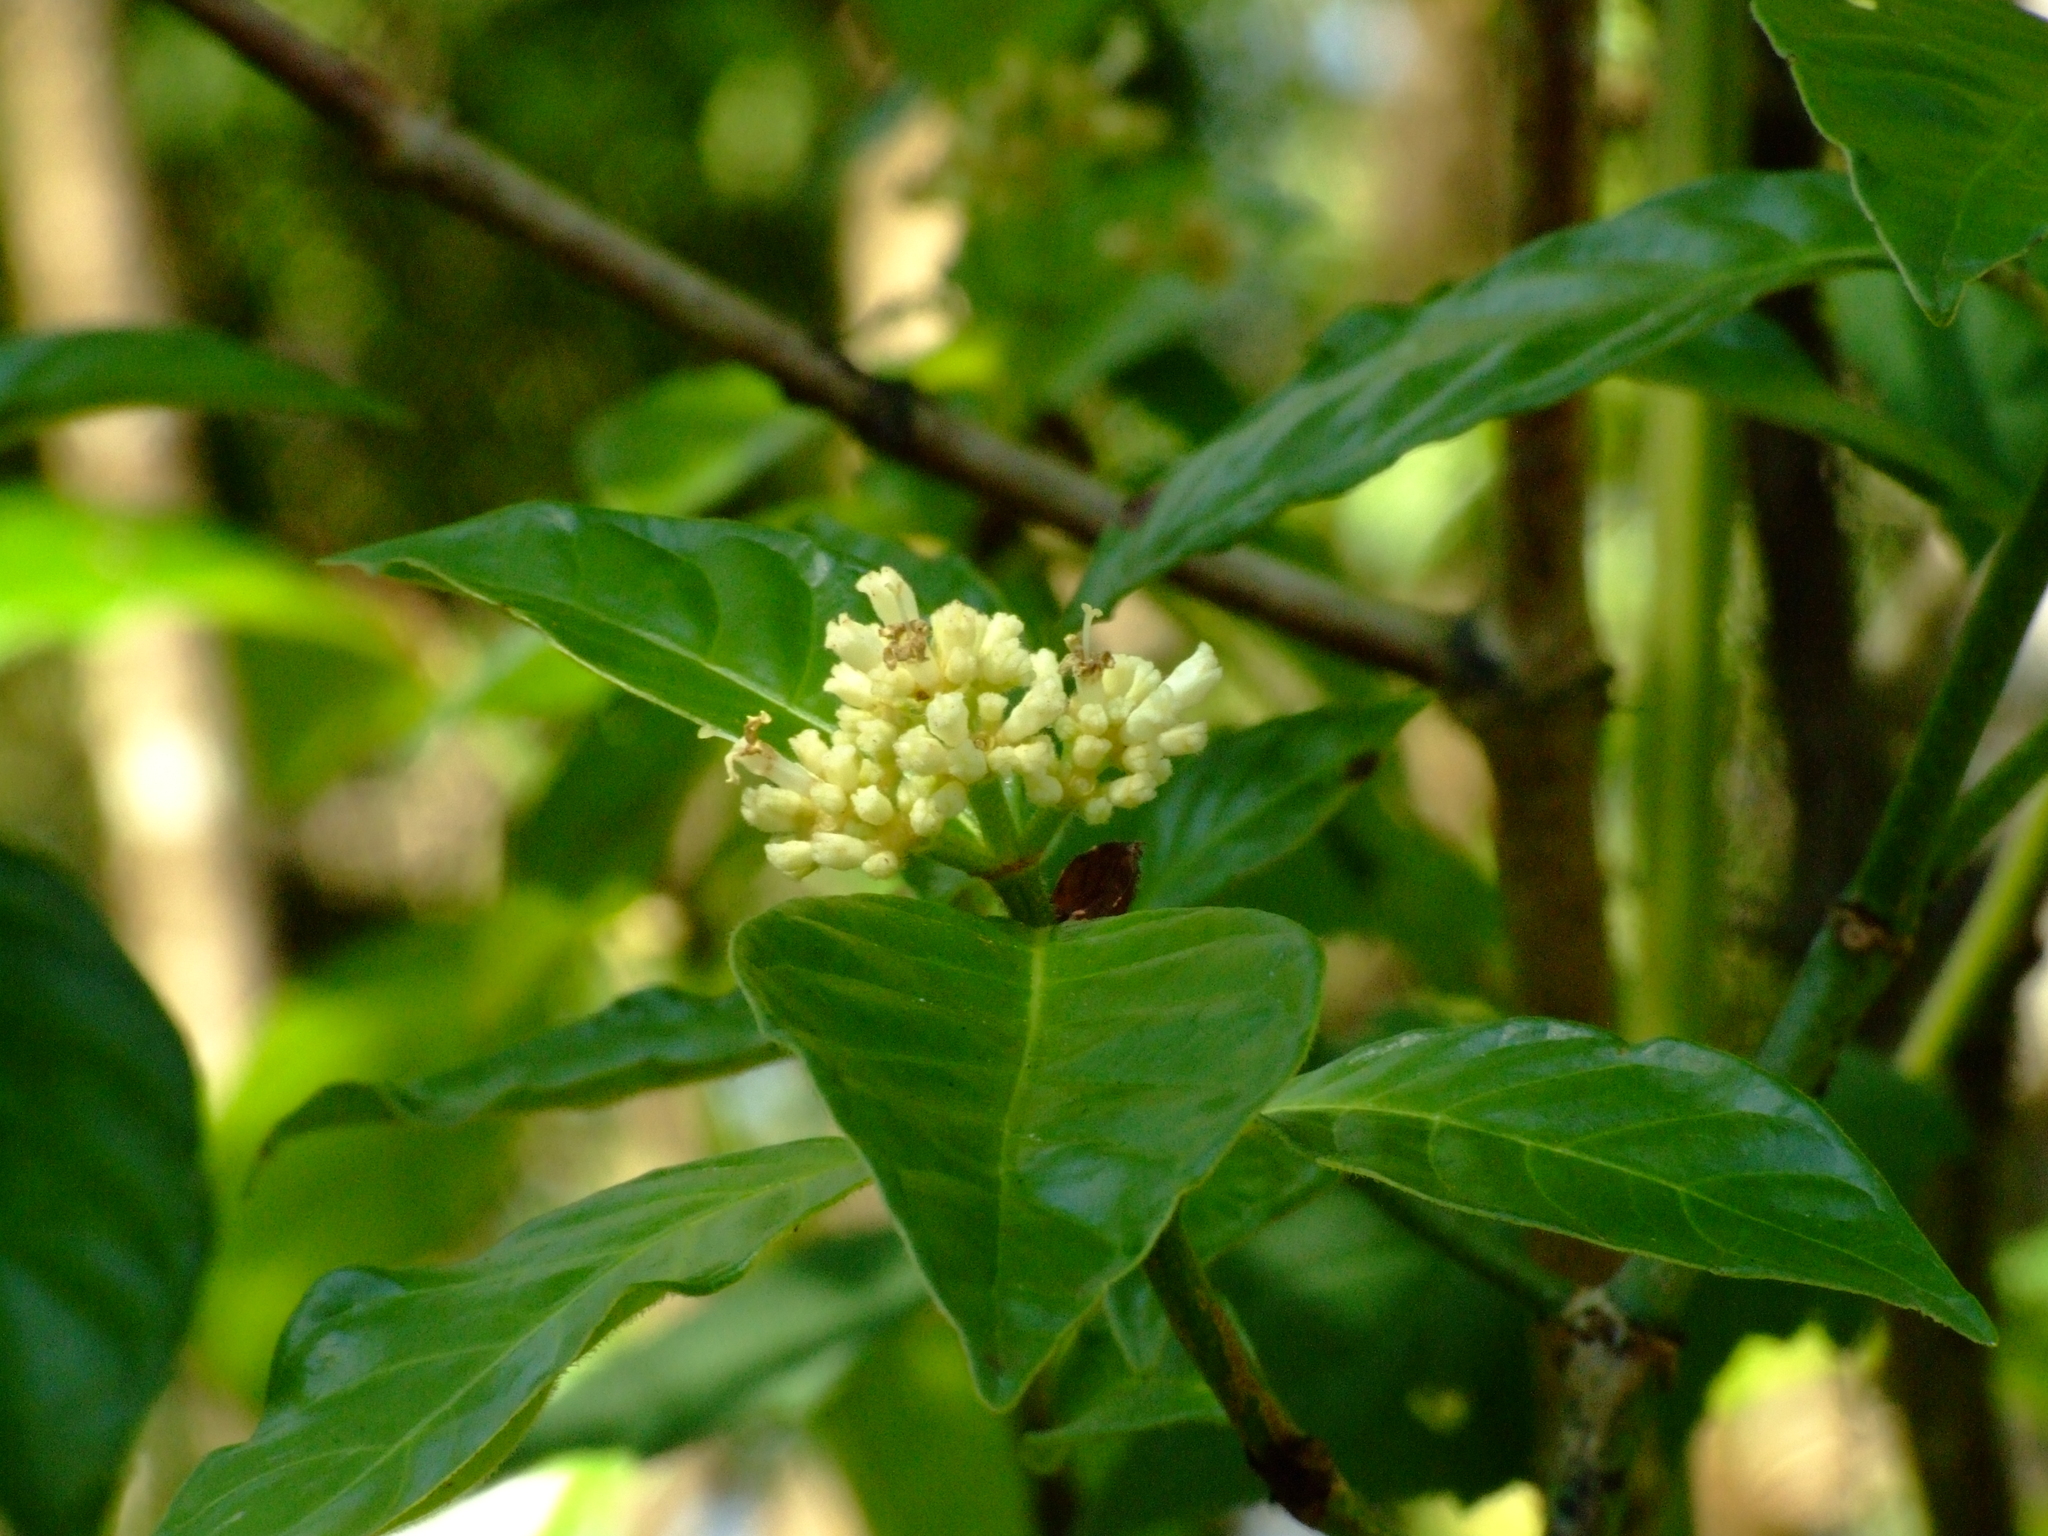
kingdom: Plantae
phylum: Tracheophyta
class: Magnoliopsida
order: Gentianales
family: Rubiaceae
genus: Psychotria
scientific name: Psychotria rufipes
